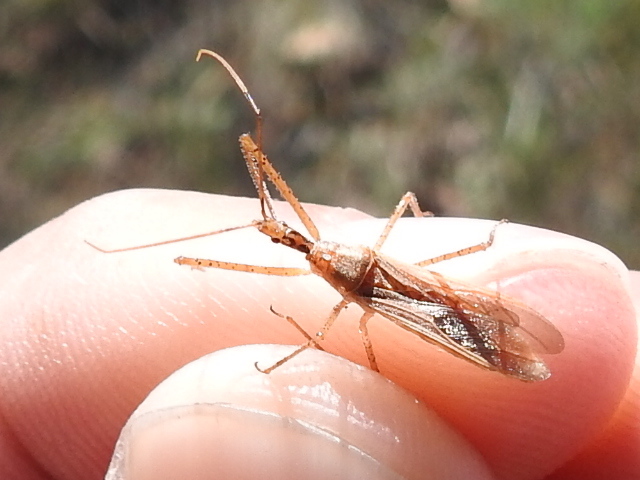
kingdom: Animalia
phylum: Arthropoda
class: Insecta
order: Hemiptera
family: Reduviidae
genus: Zelus
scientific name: Zelus cervicalis
